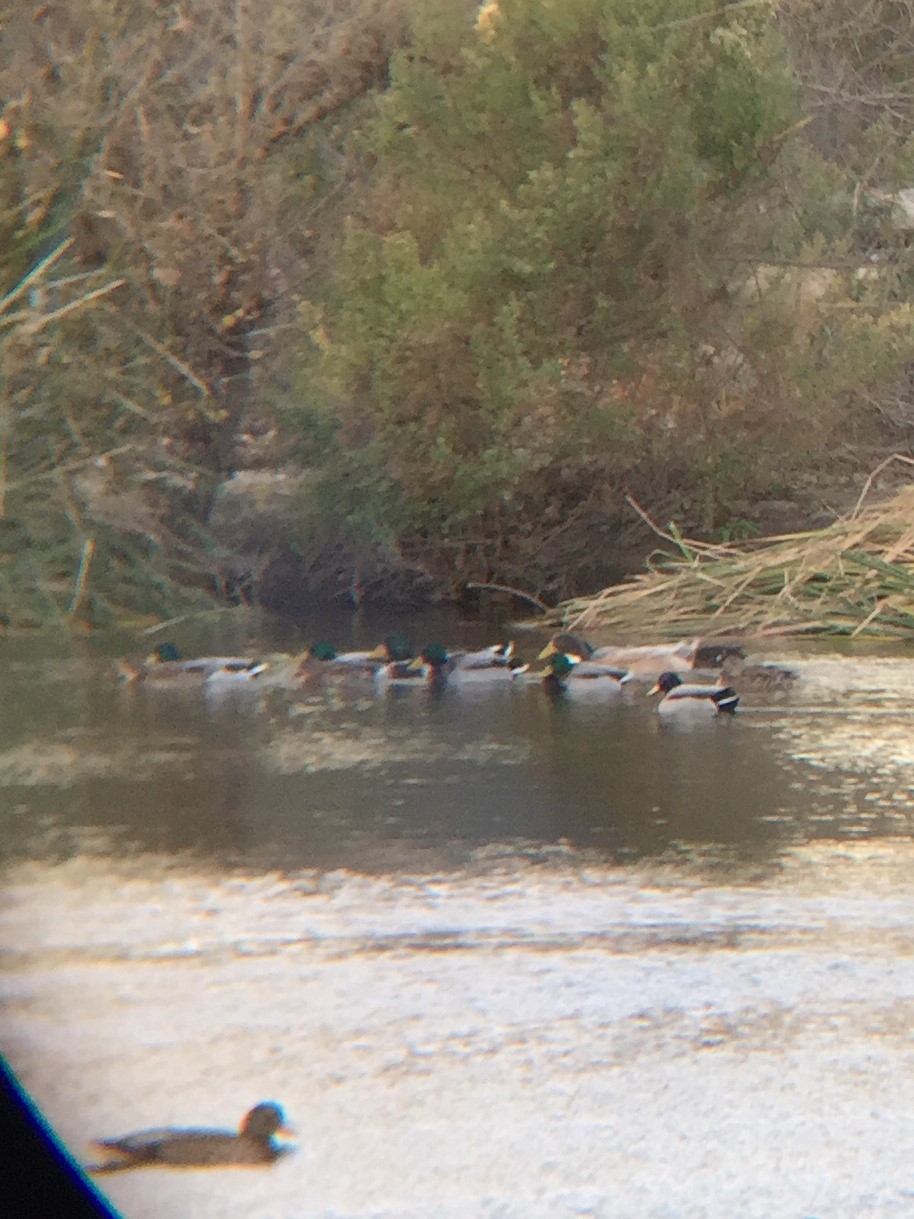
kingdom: Animalia
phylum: Chordata
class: Aves
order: Anseriformes
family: Anatidae
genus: Anas
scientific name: Anas platyrhynchos
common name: Mallard
